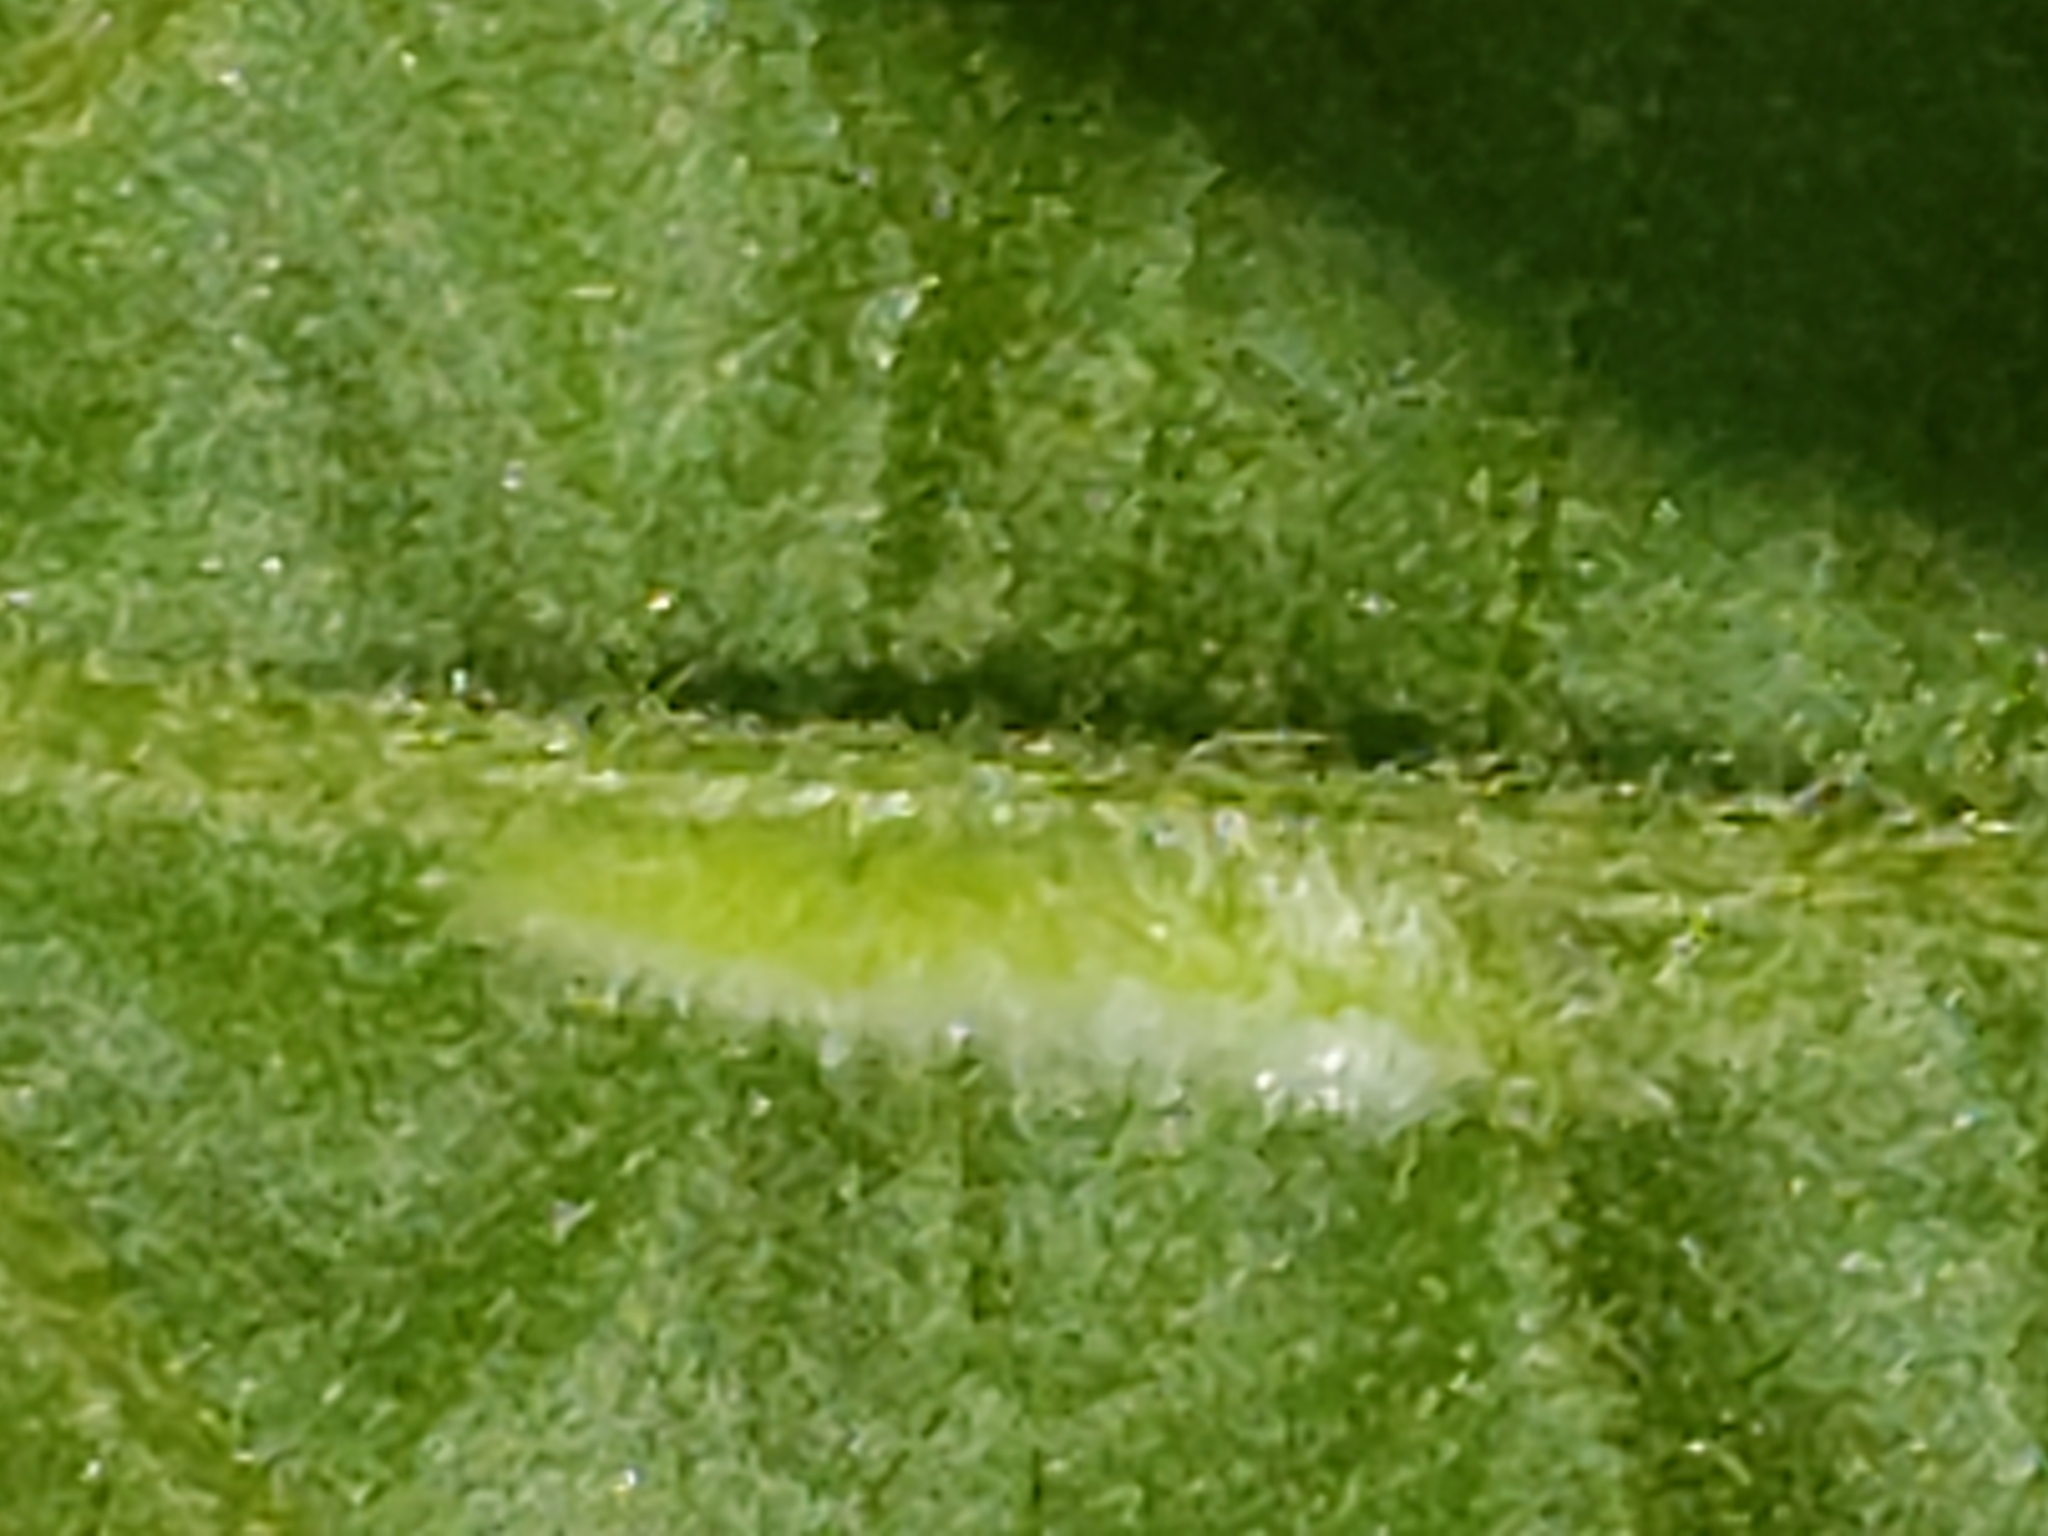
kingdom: Animalia
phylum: Arthropoda
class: Insecta
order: Diptera
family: Cecidomyiidae
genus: Macrodiplosis
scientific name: Macrodiplosis niveipila
